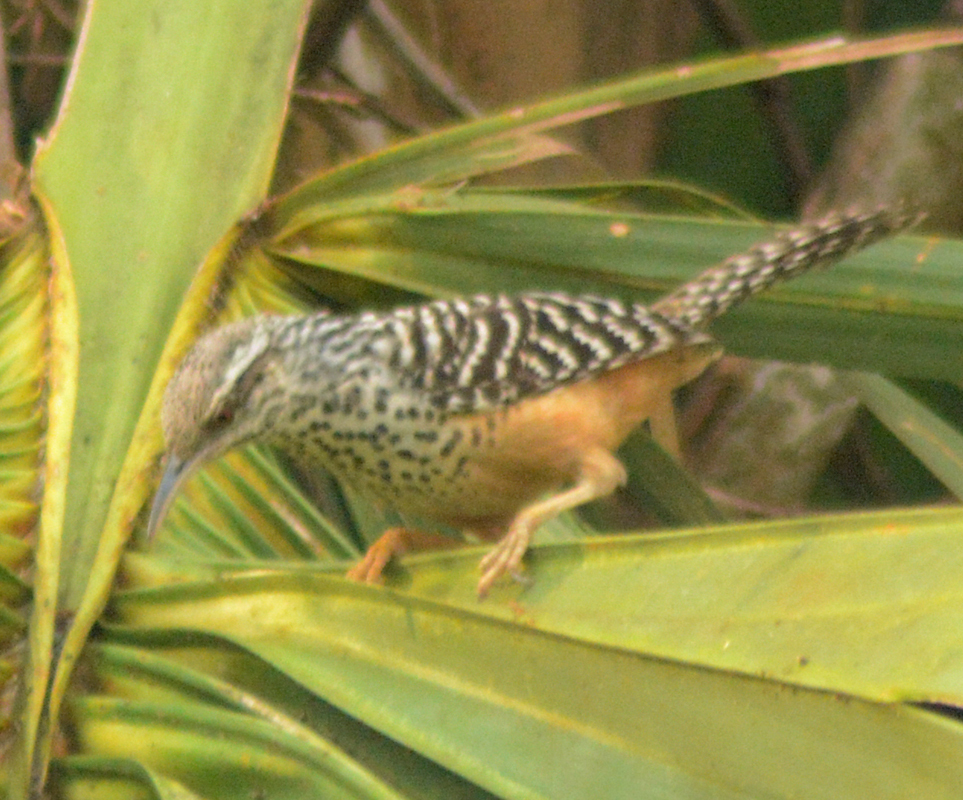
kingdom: Animalia
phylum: Chordata
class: Aves
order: Passeriformes
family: Troglodytidae
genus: Campylorhynchus
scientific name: Campylorhynchus zonatus
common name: Band-backed wren
